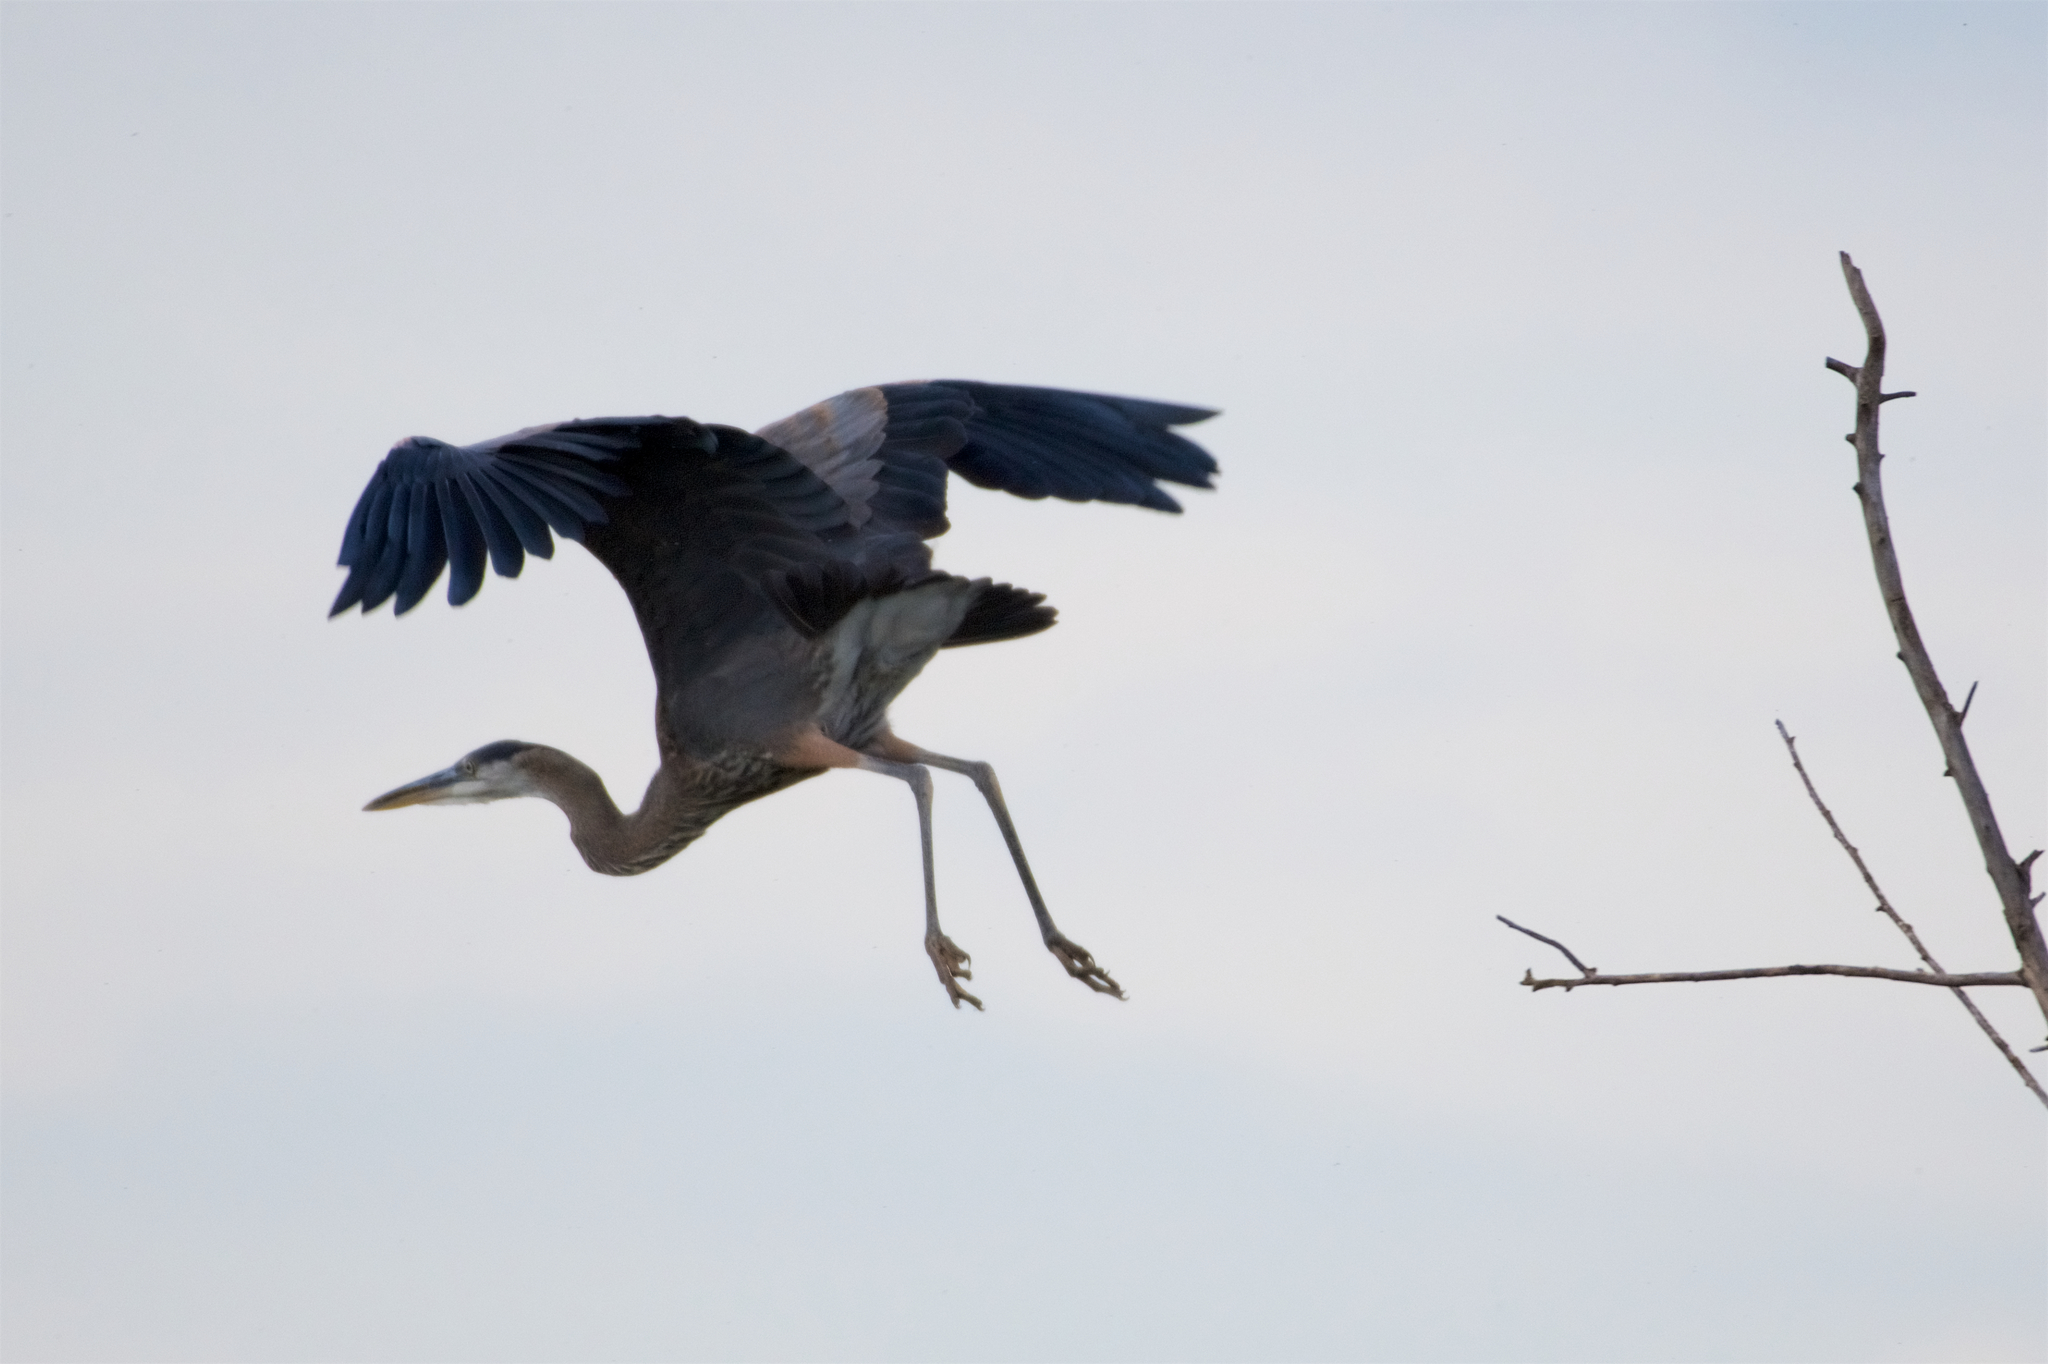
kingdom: Animalia
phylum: Chordata
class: Aves
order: Pelecaniformes
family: Ardeidae
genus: Ardea
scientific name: Ardea herodias
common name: Great blue heron
